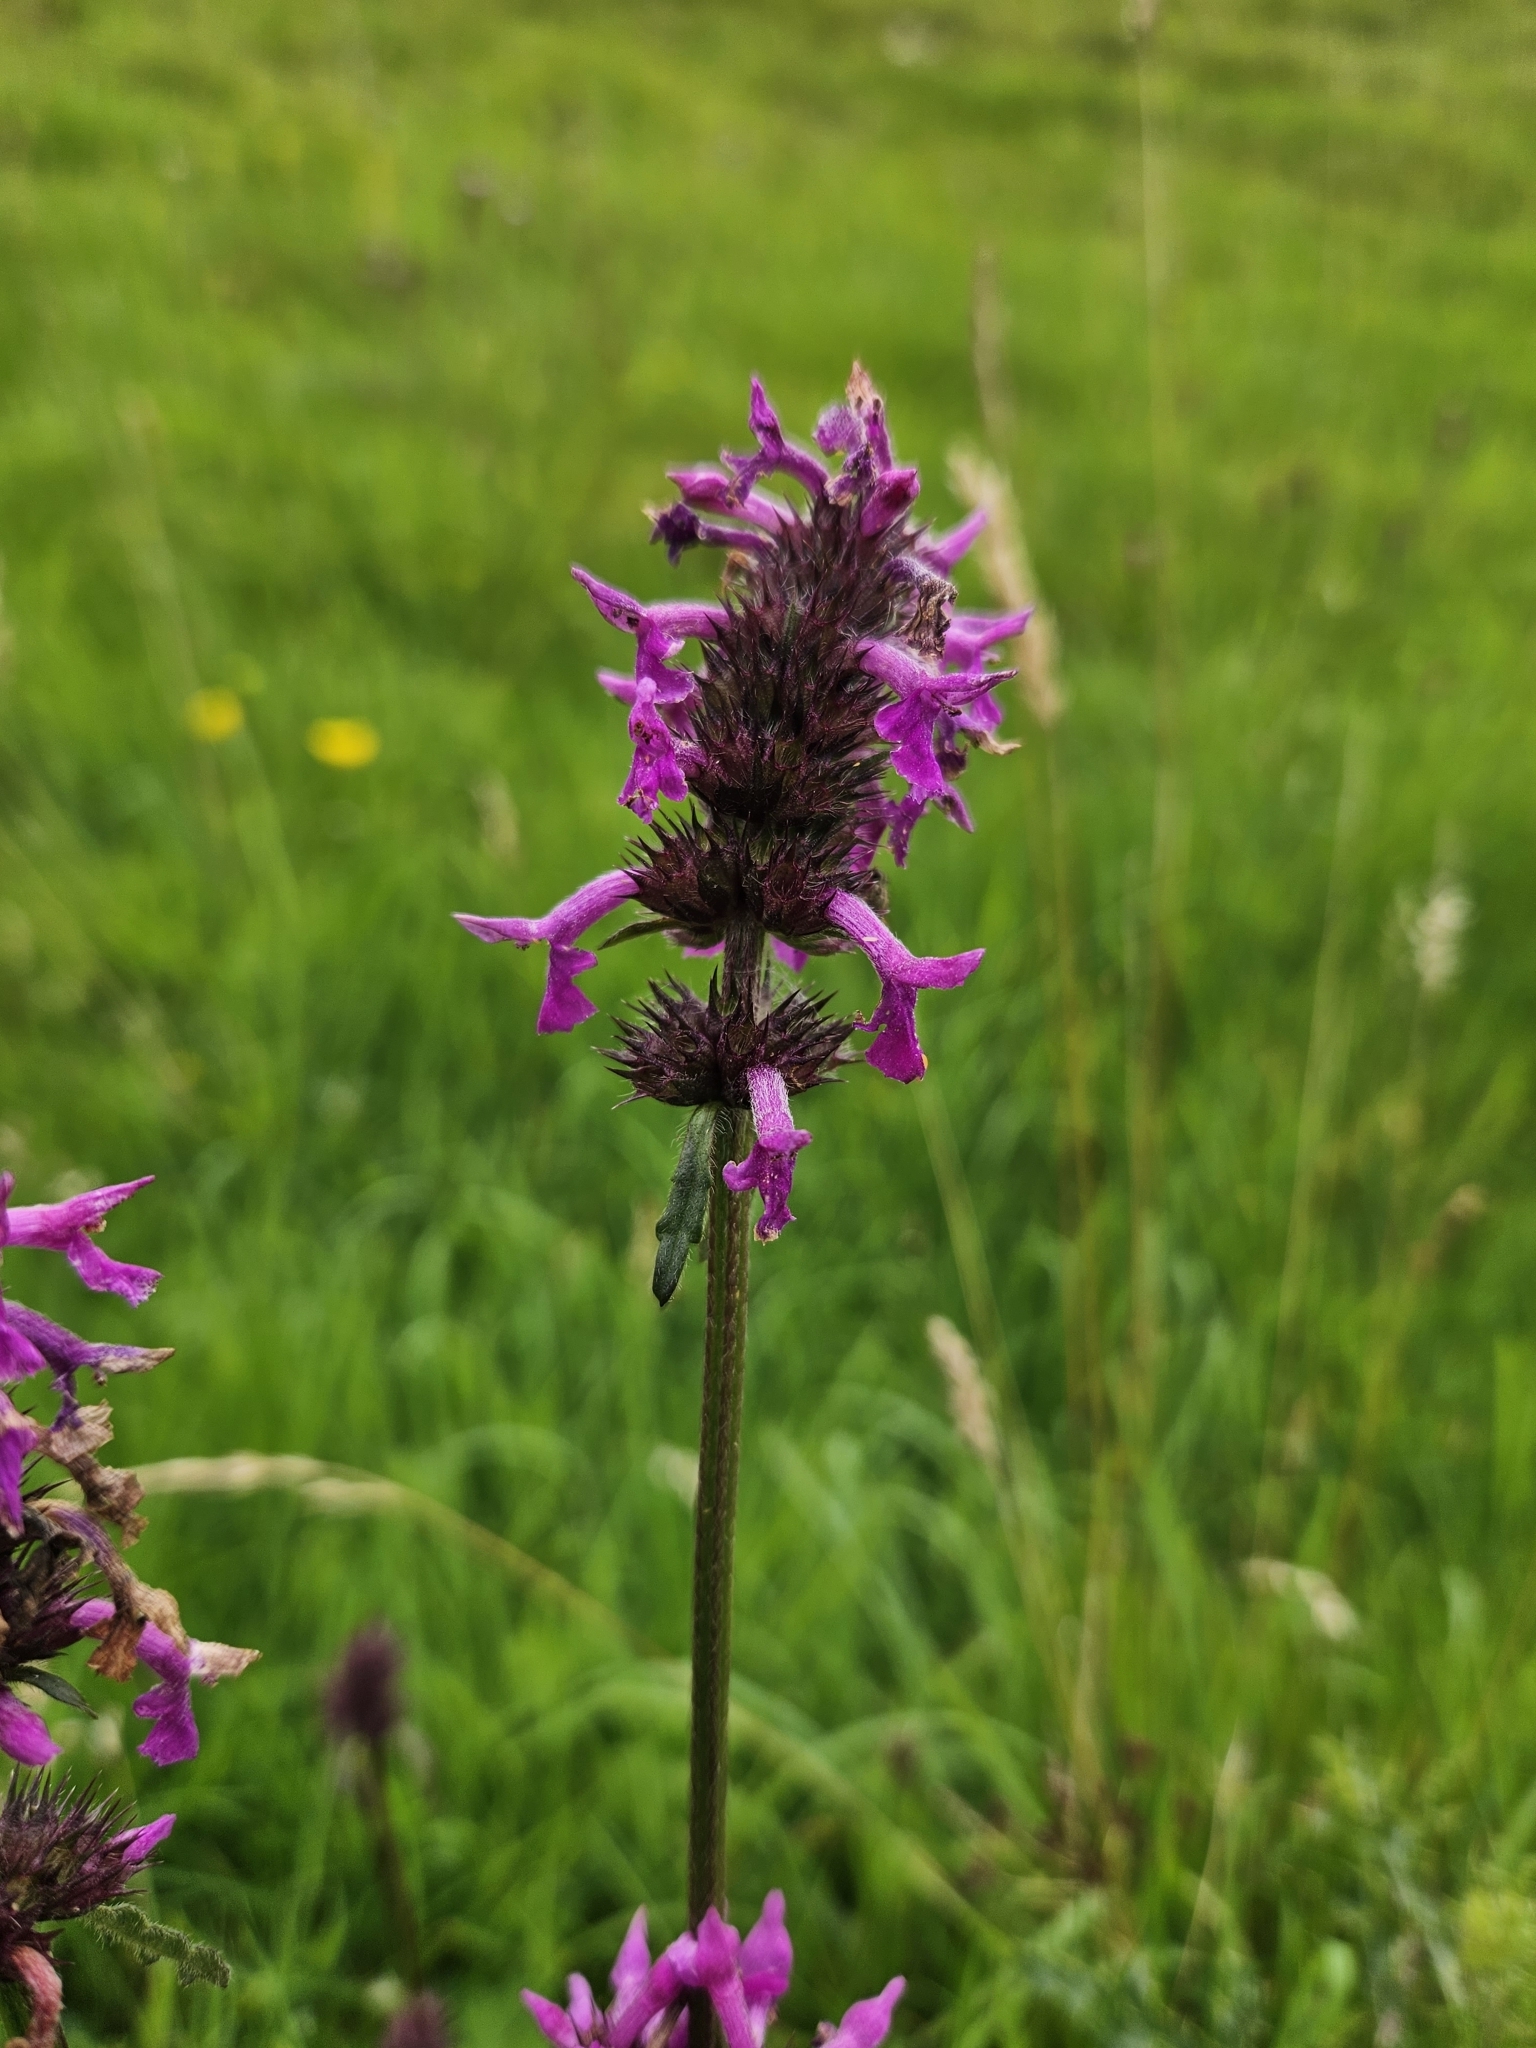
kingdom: Plantae
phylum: Tracheophyta
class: Magnoliopsida
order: Lamiales
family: Lamiaceae
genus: Betonica
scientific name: Betonica officinalis
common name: Bishop's-wort
